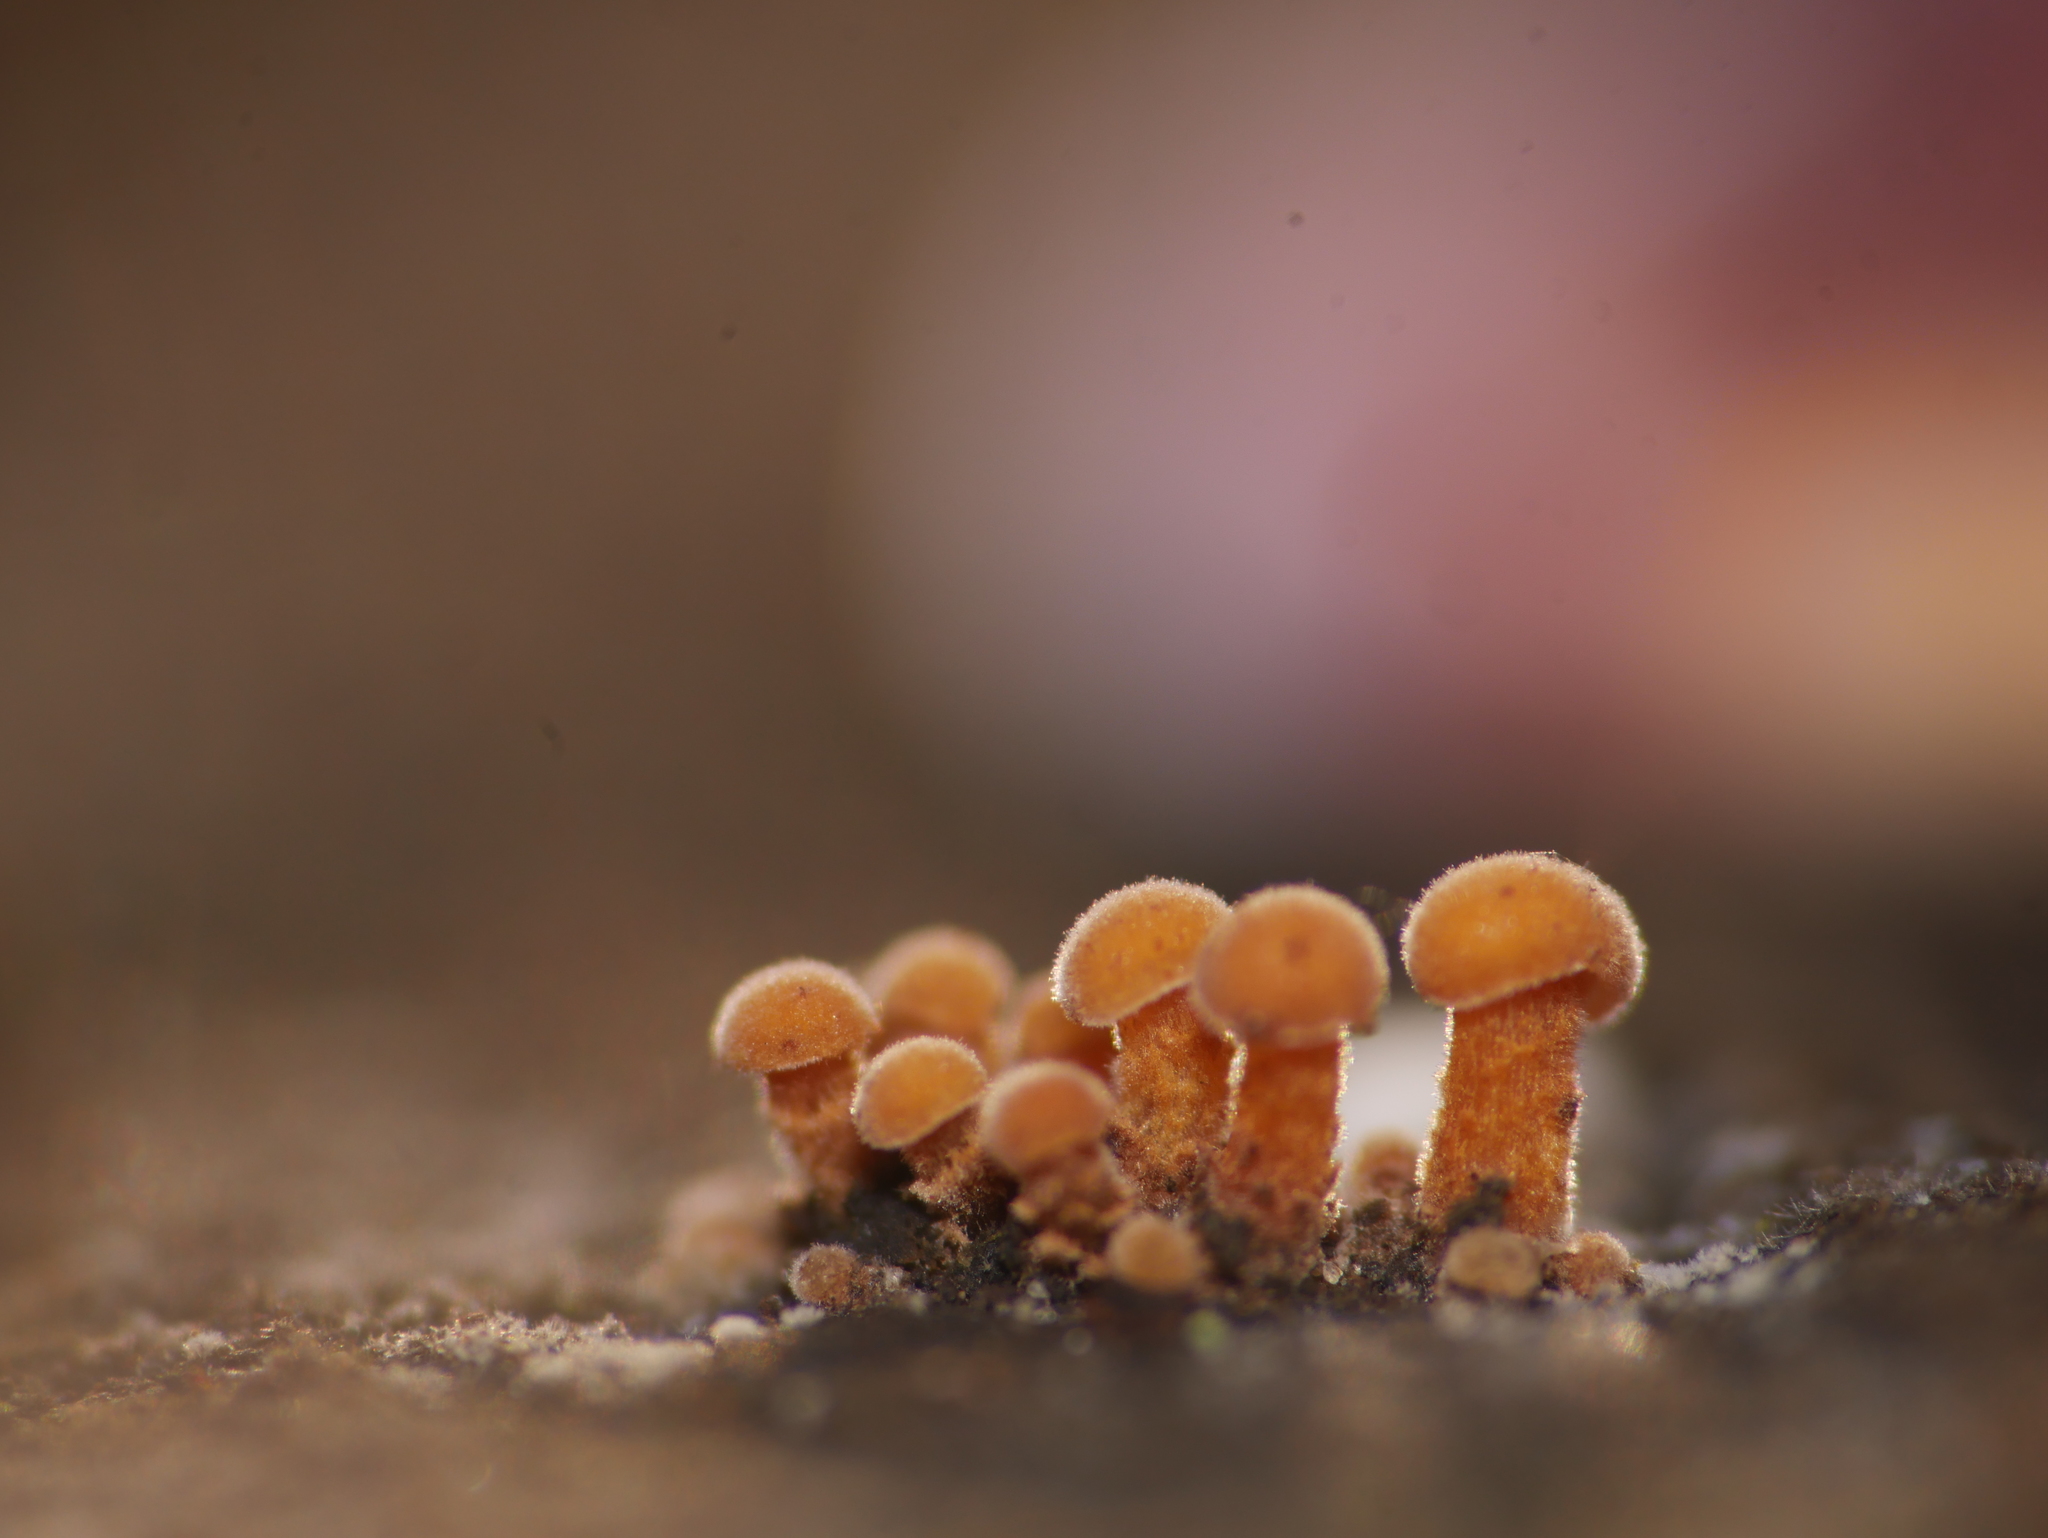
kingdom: Fungi
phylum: Basidiomycota
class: Agaricomycetes
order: Agaricales
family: Physalacriaceae
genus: Flammulina
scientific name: Flammulina
